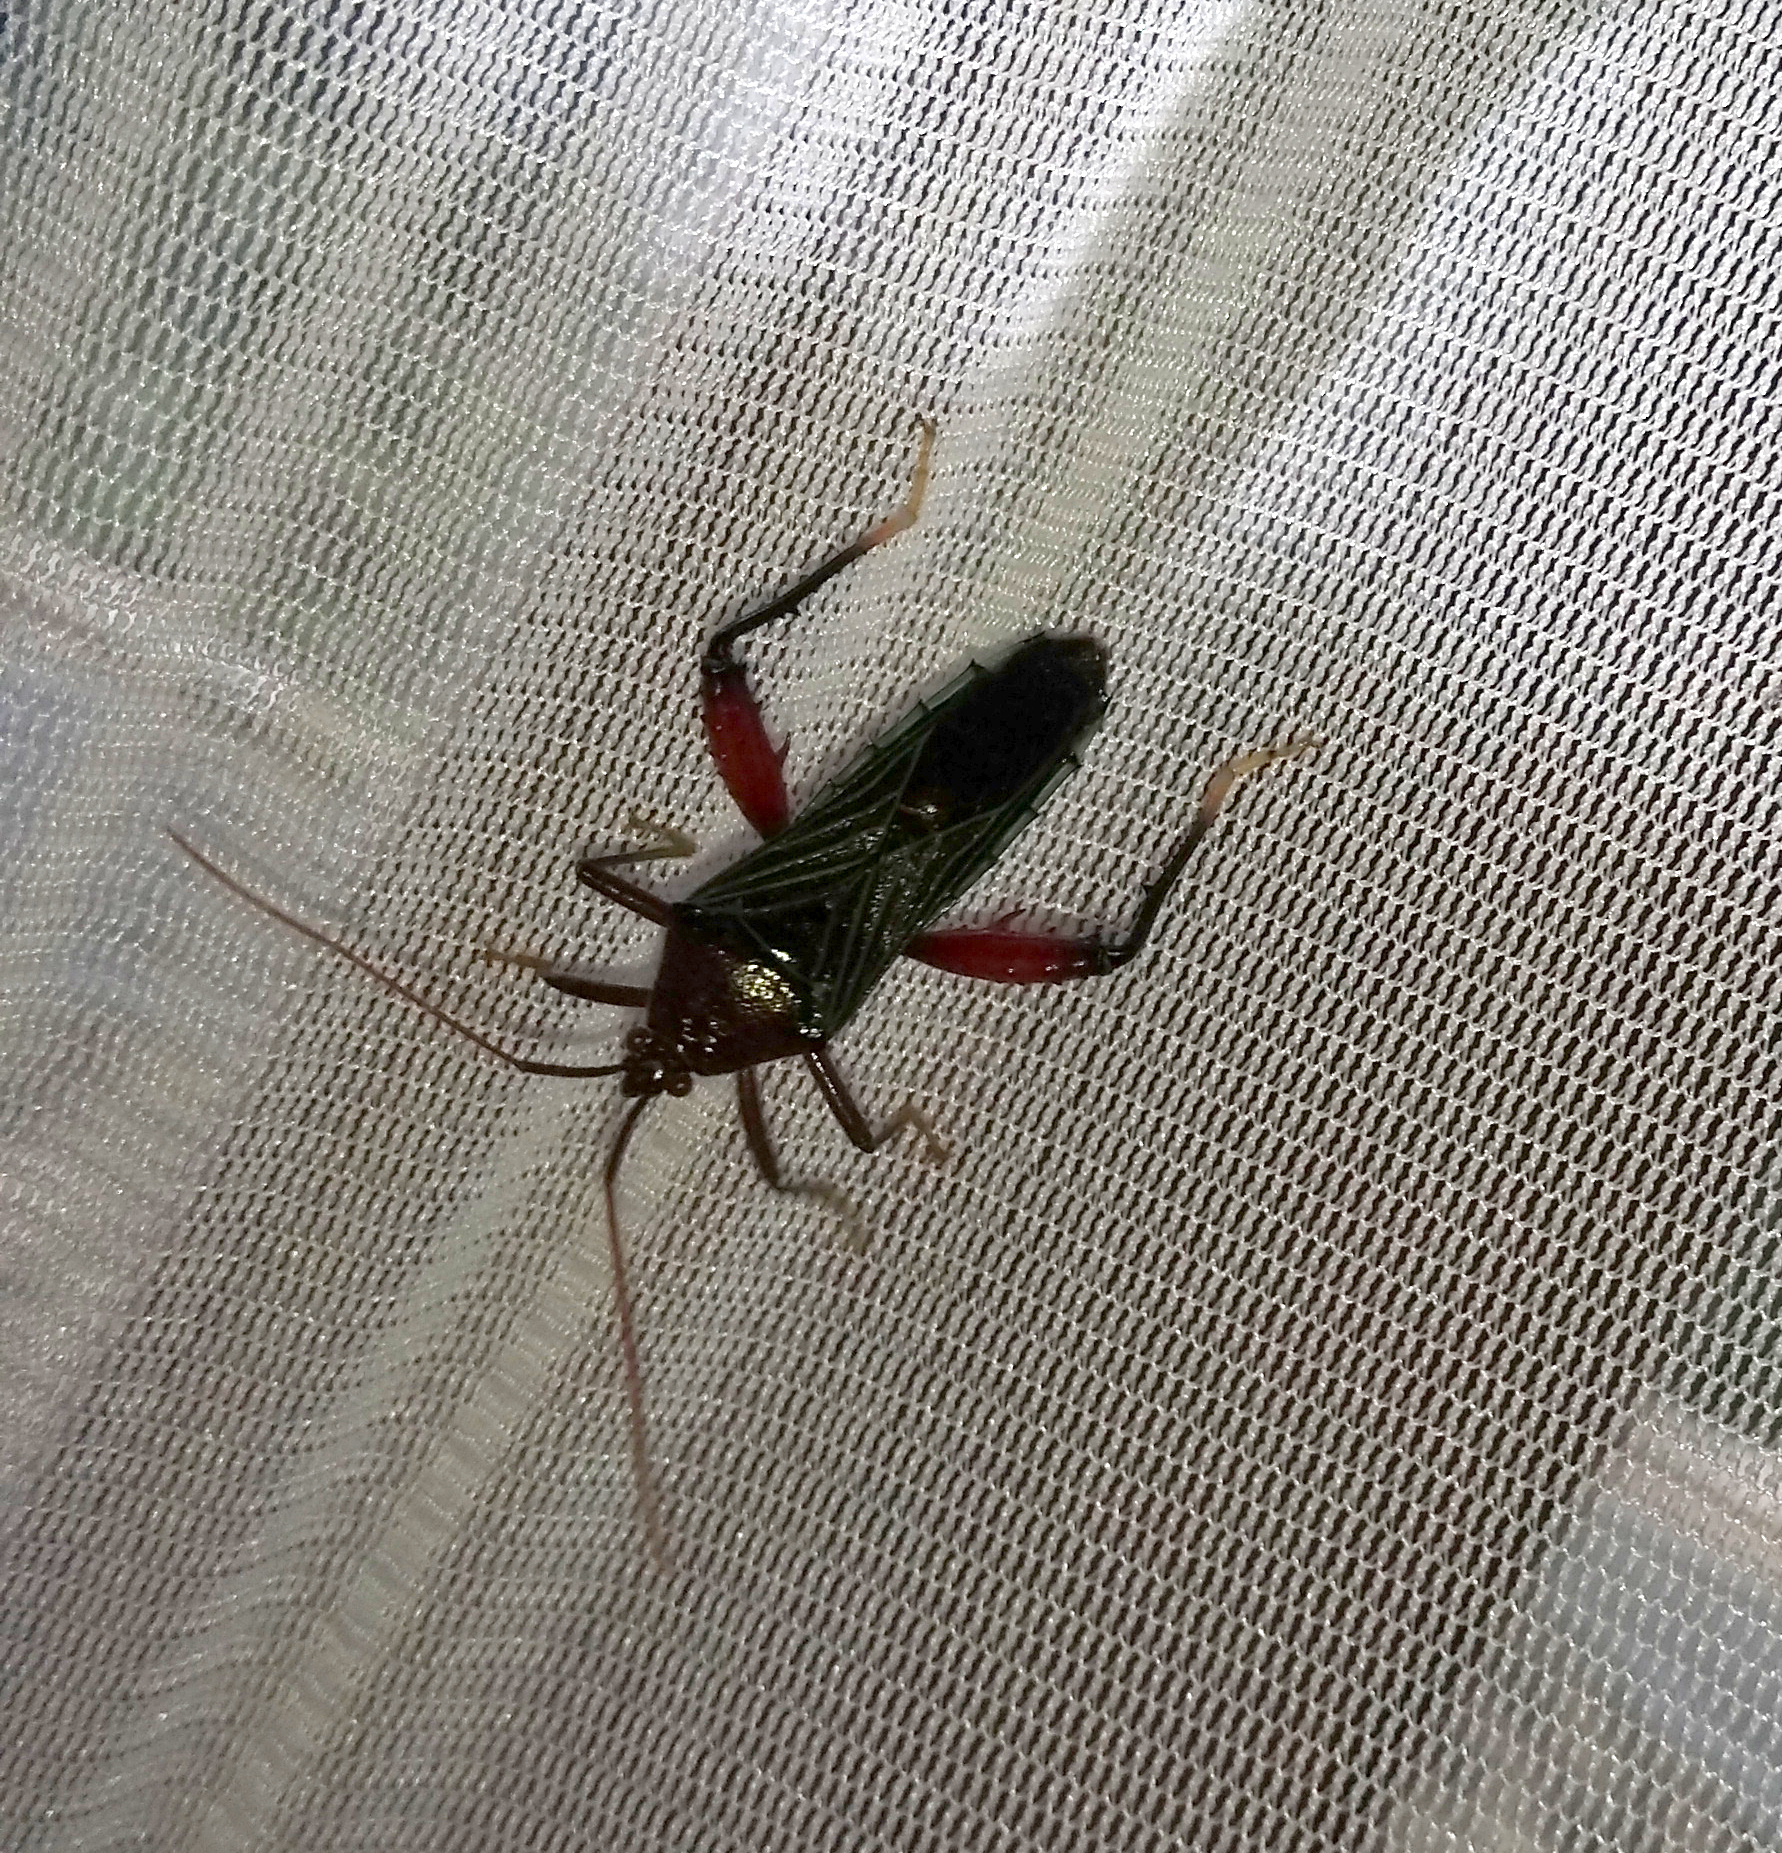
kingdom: Animalia
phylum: Arthropoda
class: Insecta
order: Hemiptera
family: Coreidae
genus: Nematopus
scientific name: Nematopus
